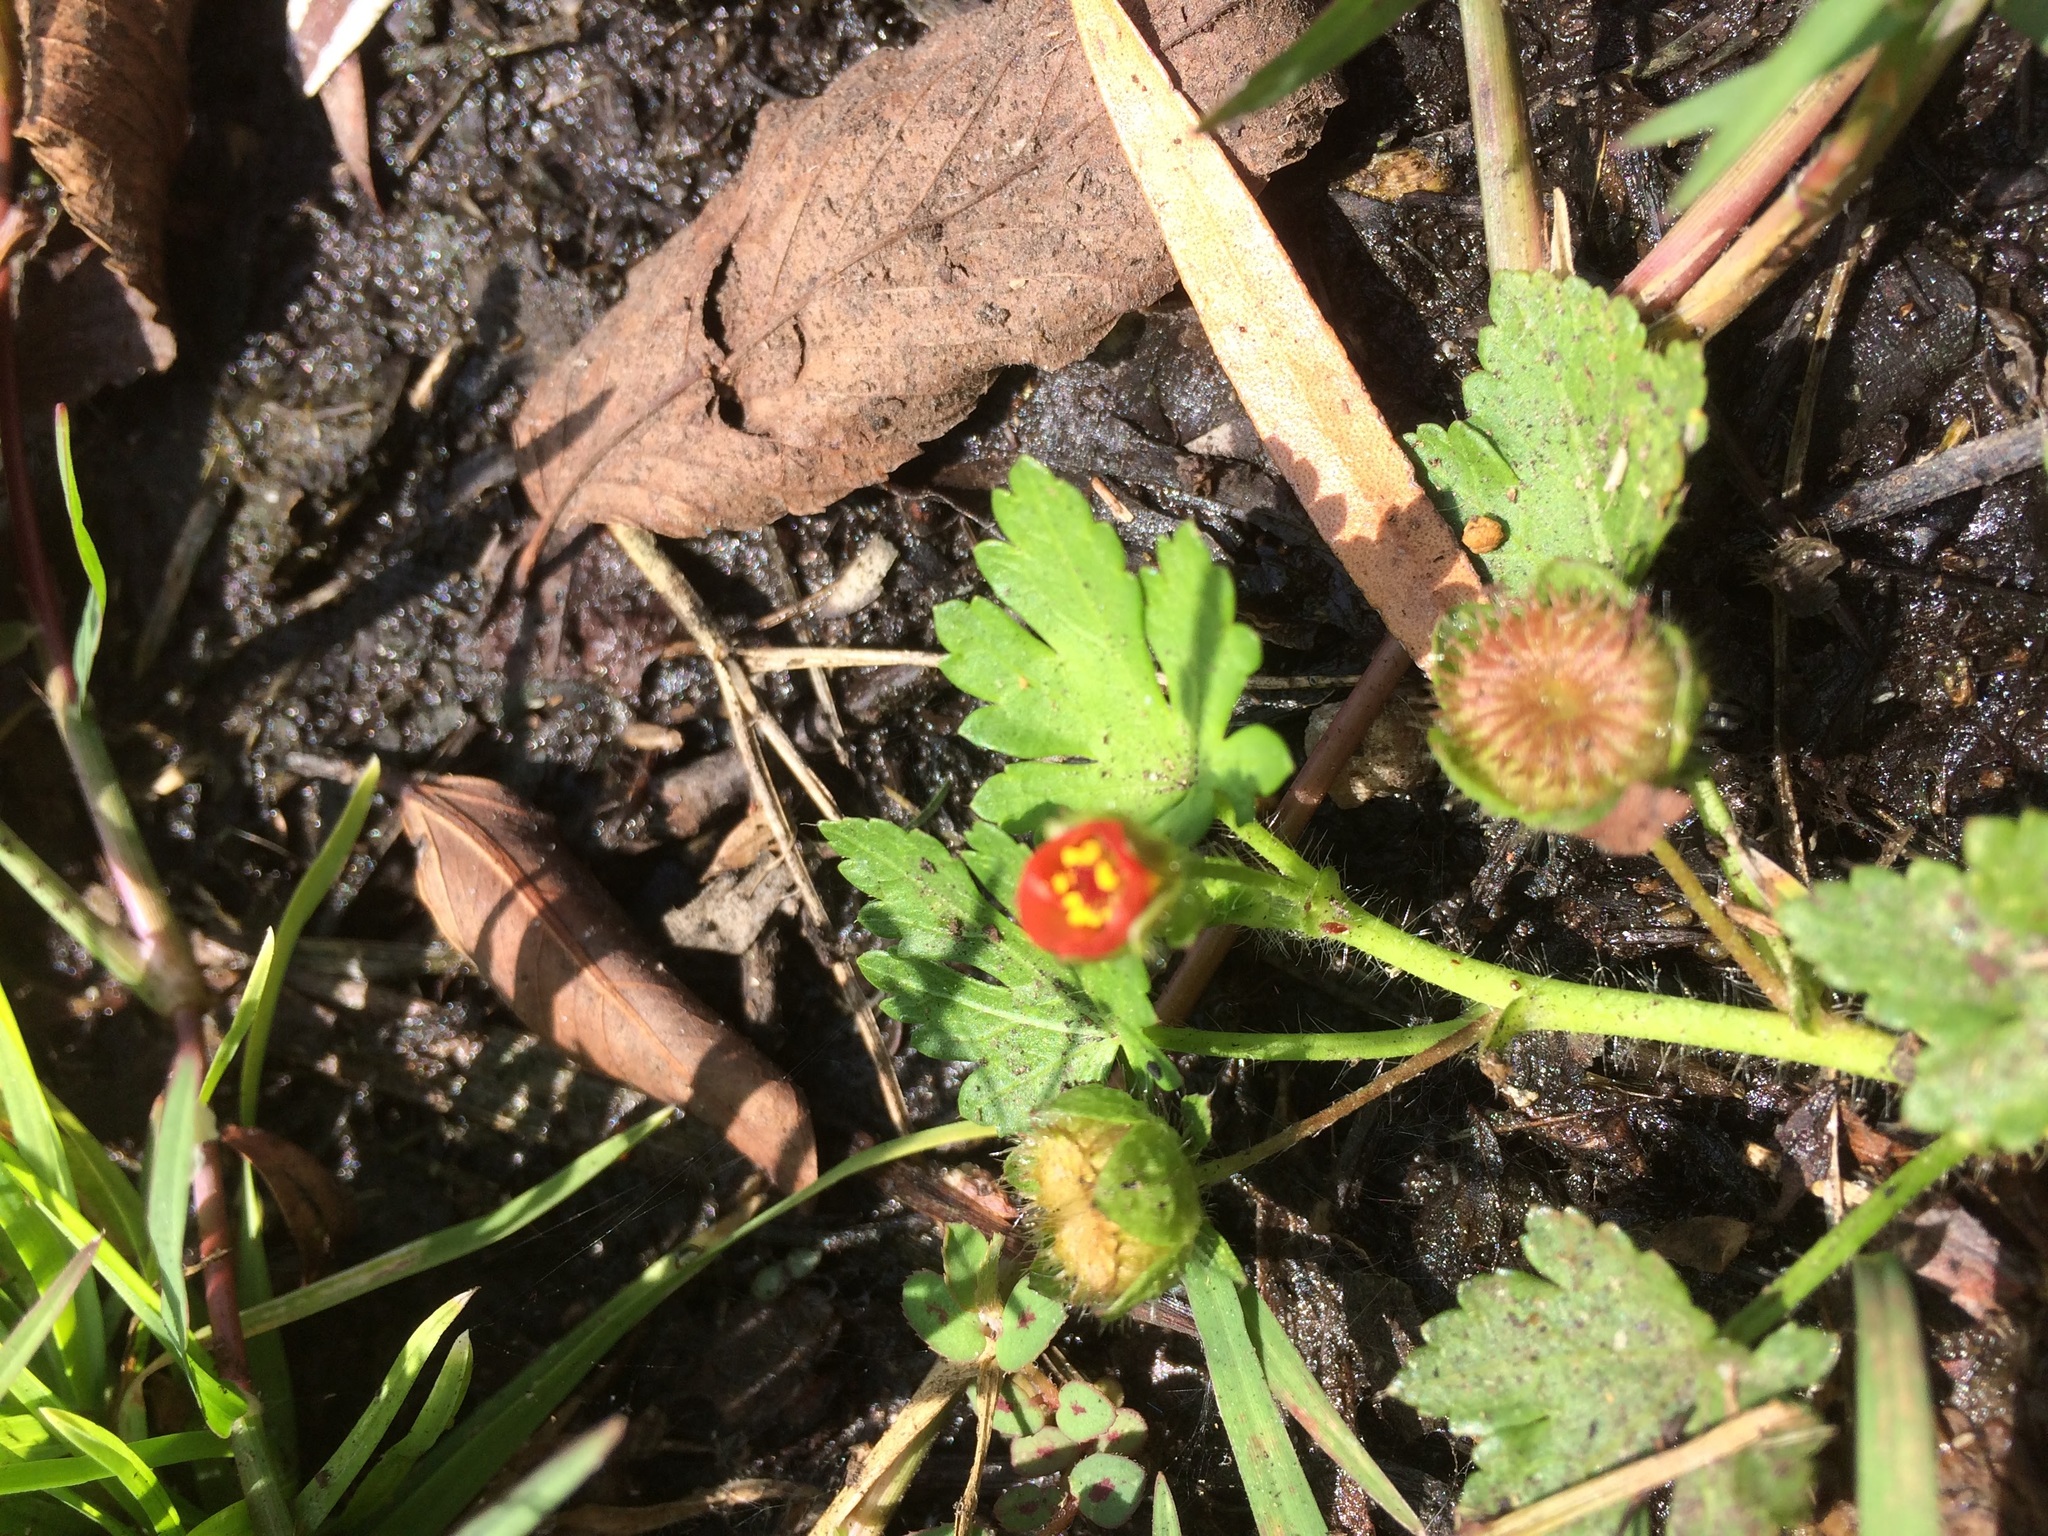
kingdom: Plantae
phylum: Tracheophyta
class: Magnoliopsida
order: Malvales
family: Malvaceae
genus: Modiola
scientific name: Modiola caroliniana
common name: Carolina bristlemallow
